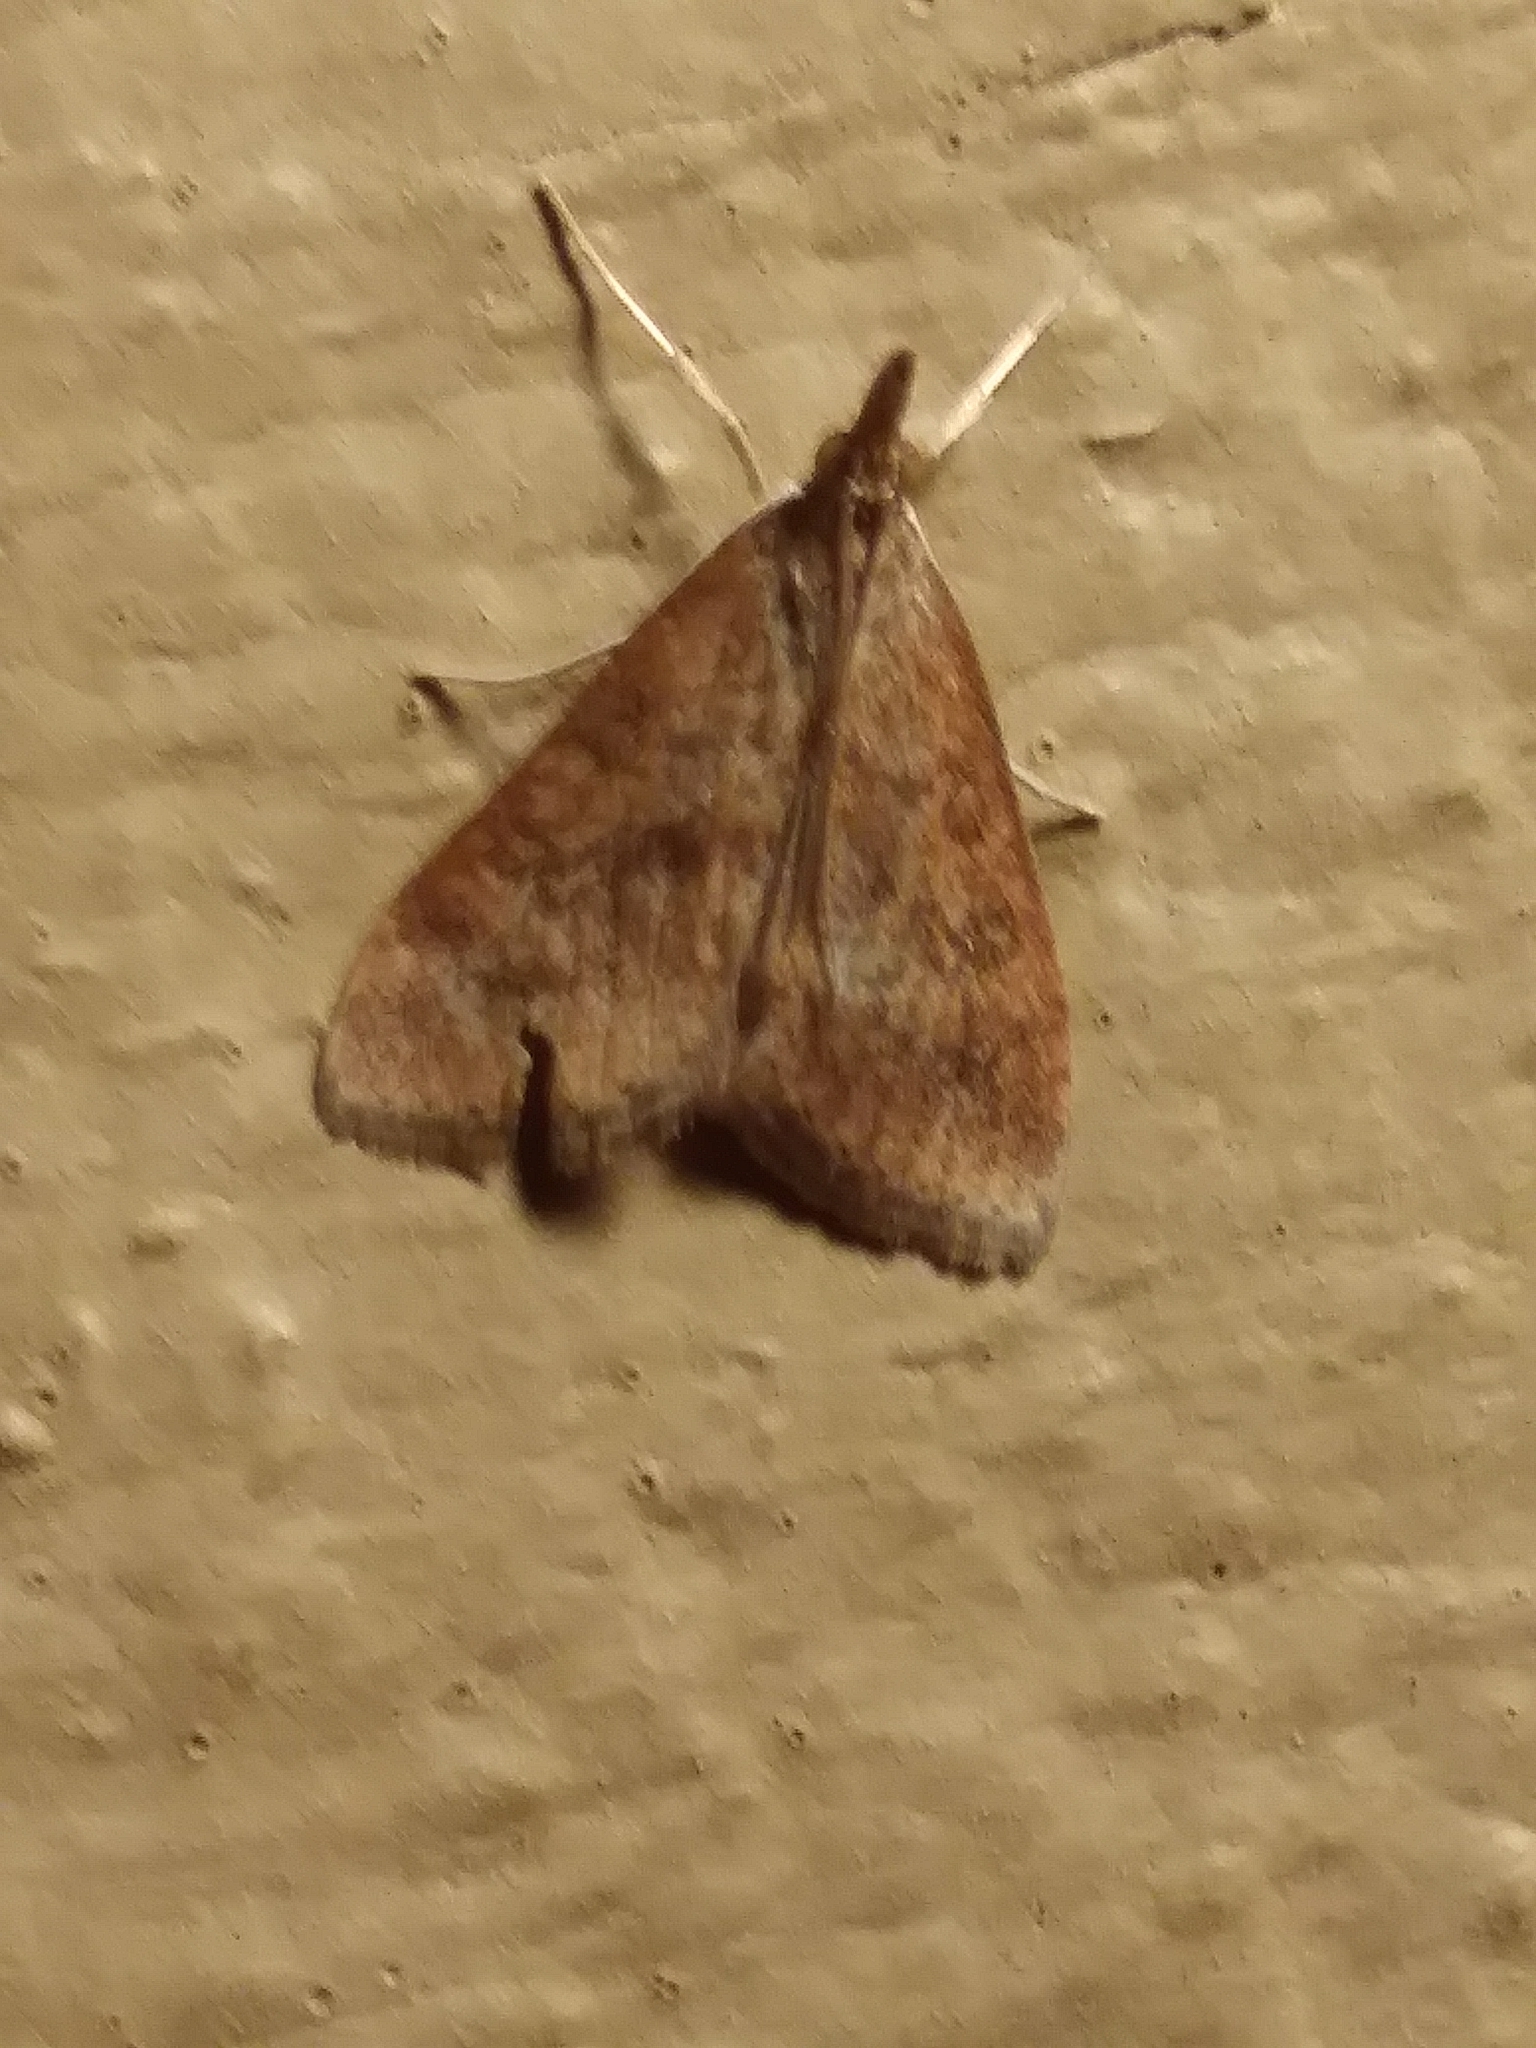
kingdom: Animalia
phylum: Arthropoda
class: Insecta
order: Lepidoptera
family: Crambidae
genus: Udea
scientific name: Udea rubigalis
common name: Celery leaftier moth
